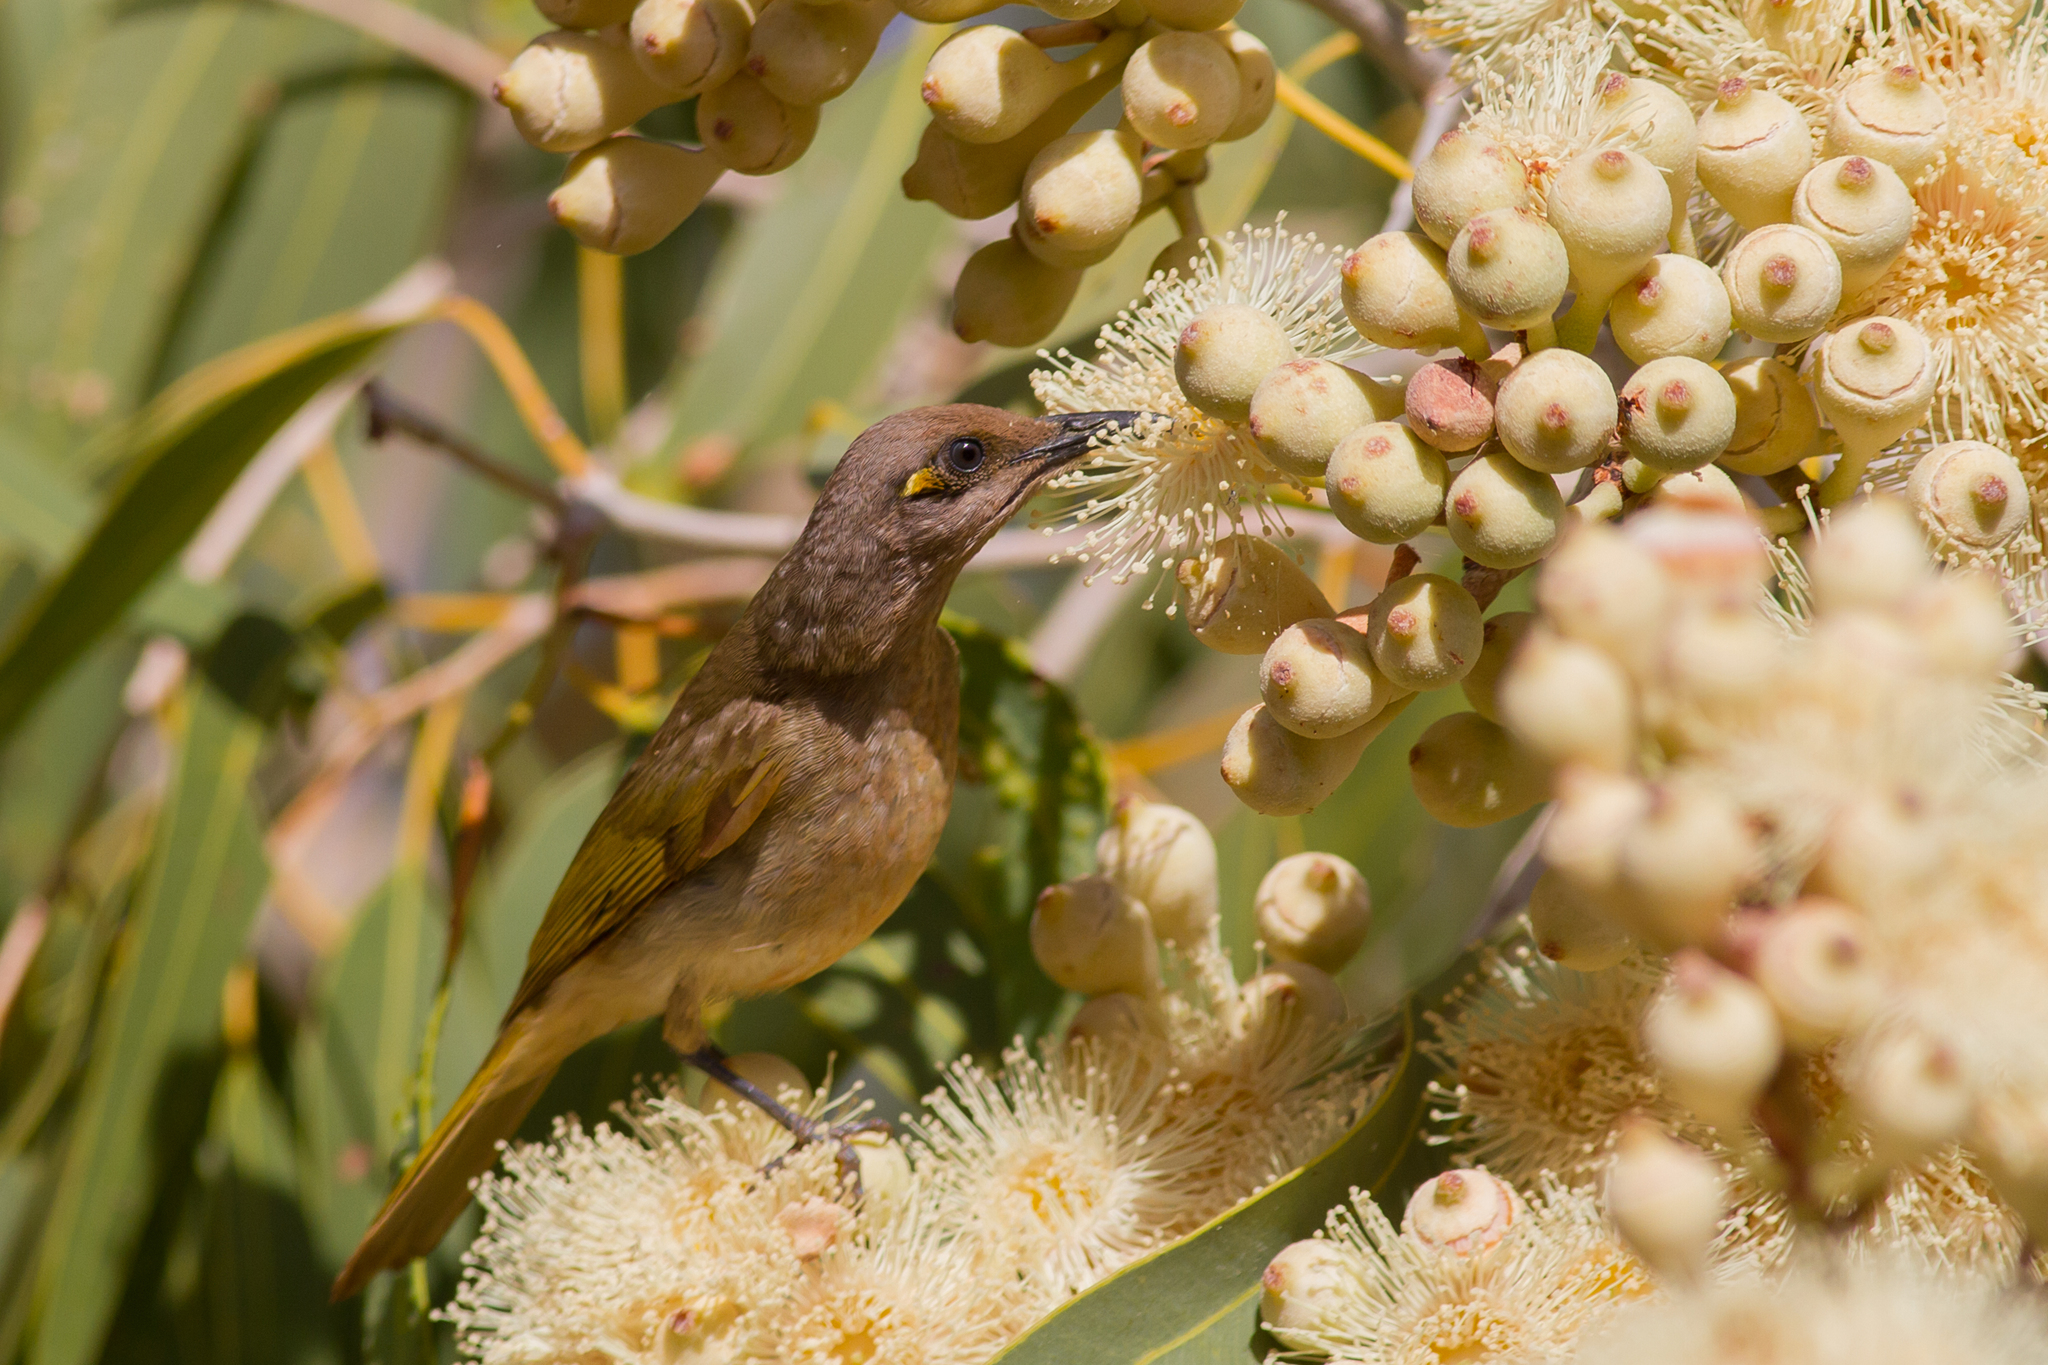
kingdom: Animalia
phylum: Chordata
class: Aves
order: Passeriformes
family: Meliphagidae
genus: Lichmera
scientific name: Lichmera indistincta
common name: Brown honeyeater
